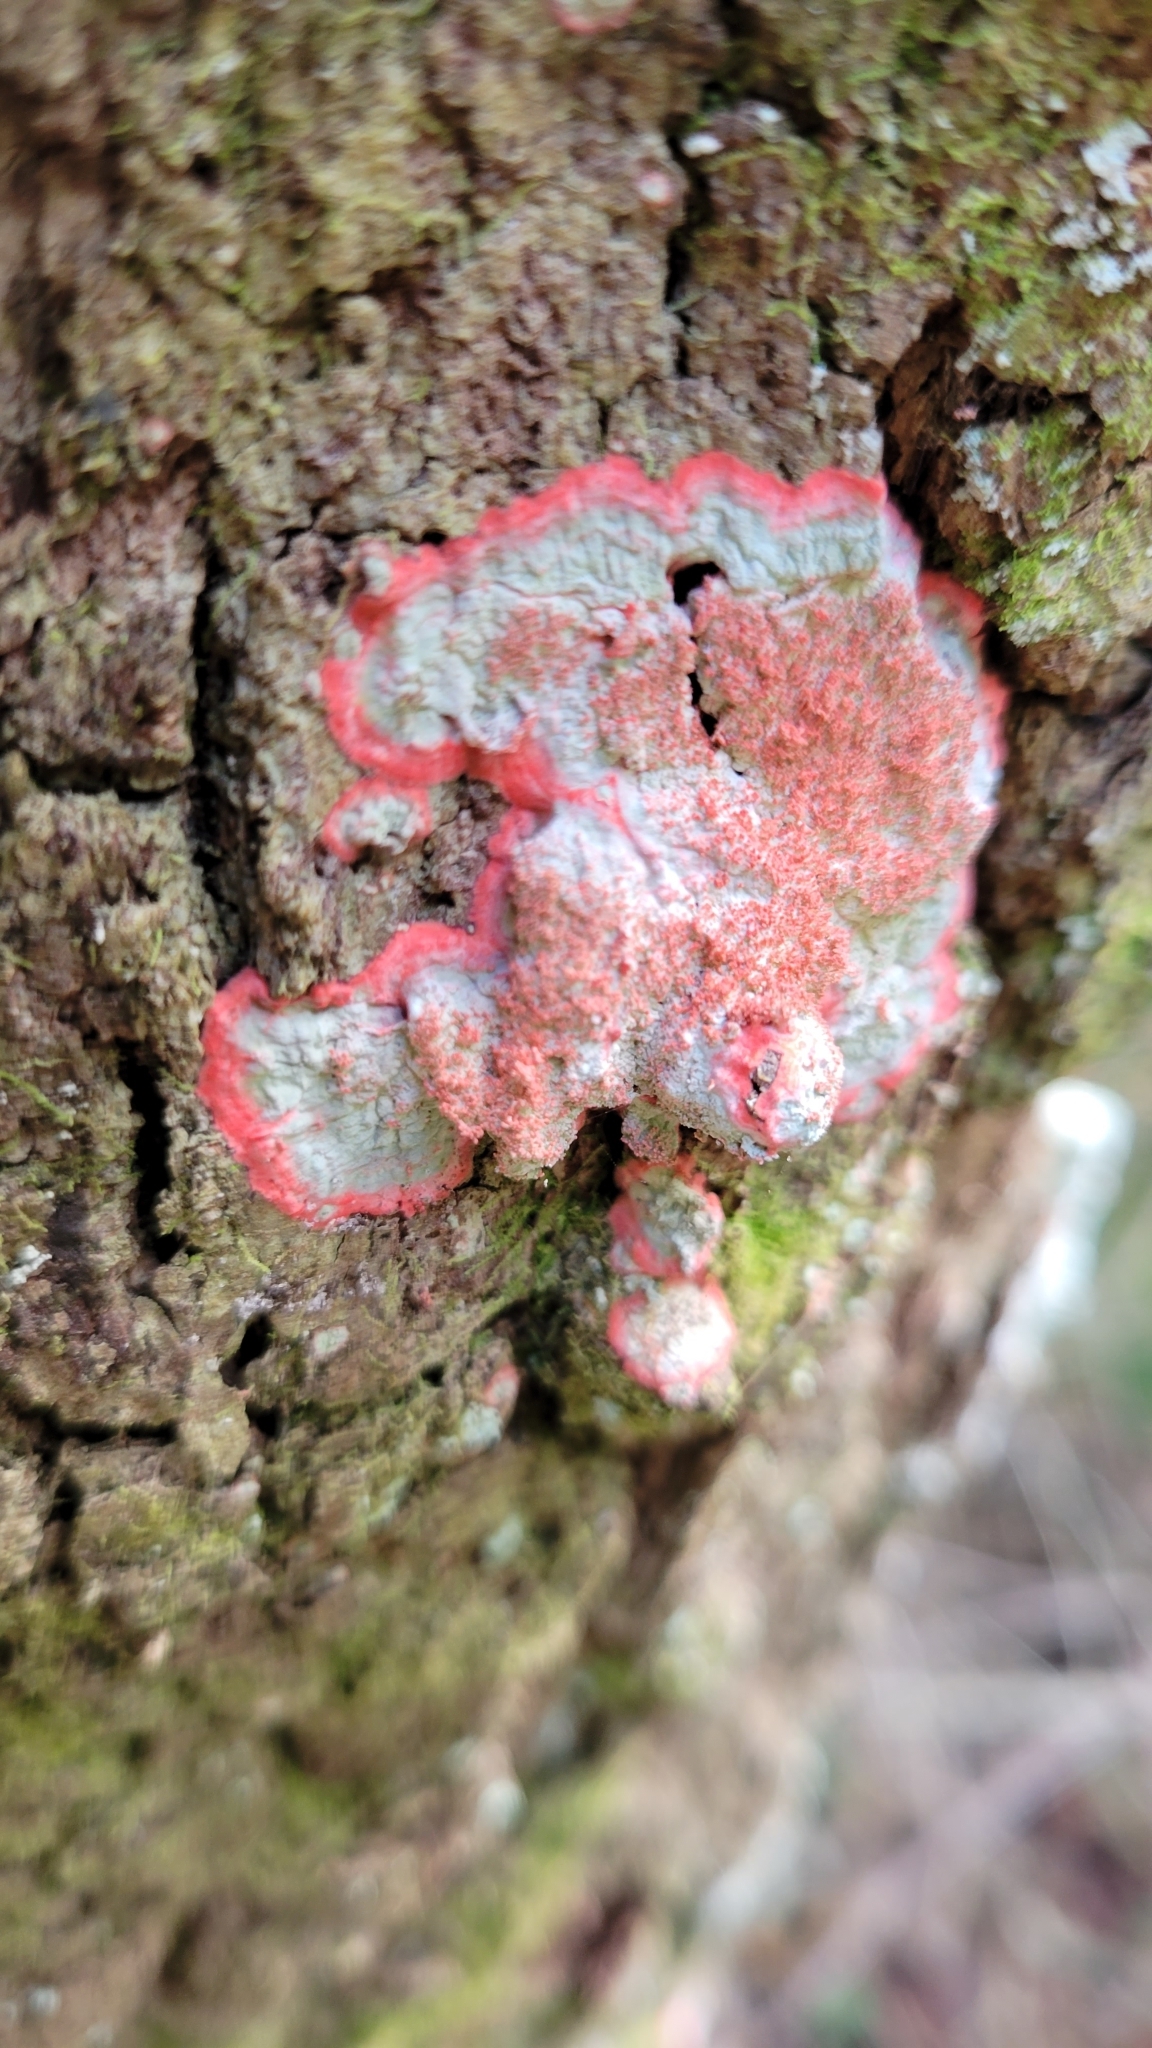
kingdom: Fungi
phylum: Ascomycota
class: Arthoniomycetes
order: Arthoniales
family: Arthoniaceae
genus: Herpothallon
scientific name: Herpothallon rubrocinctum
